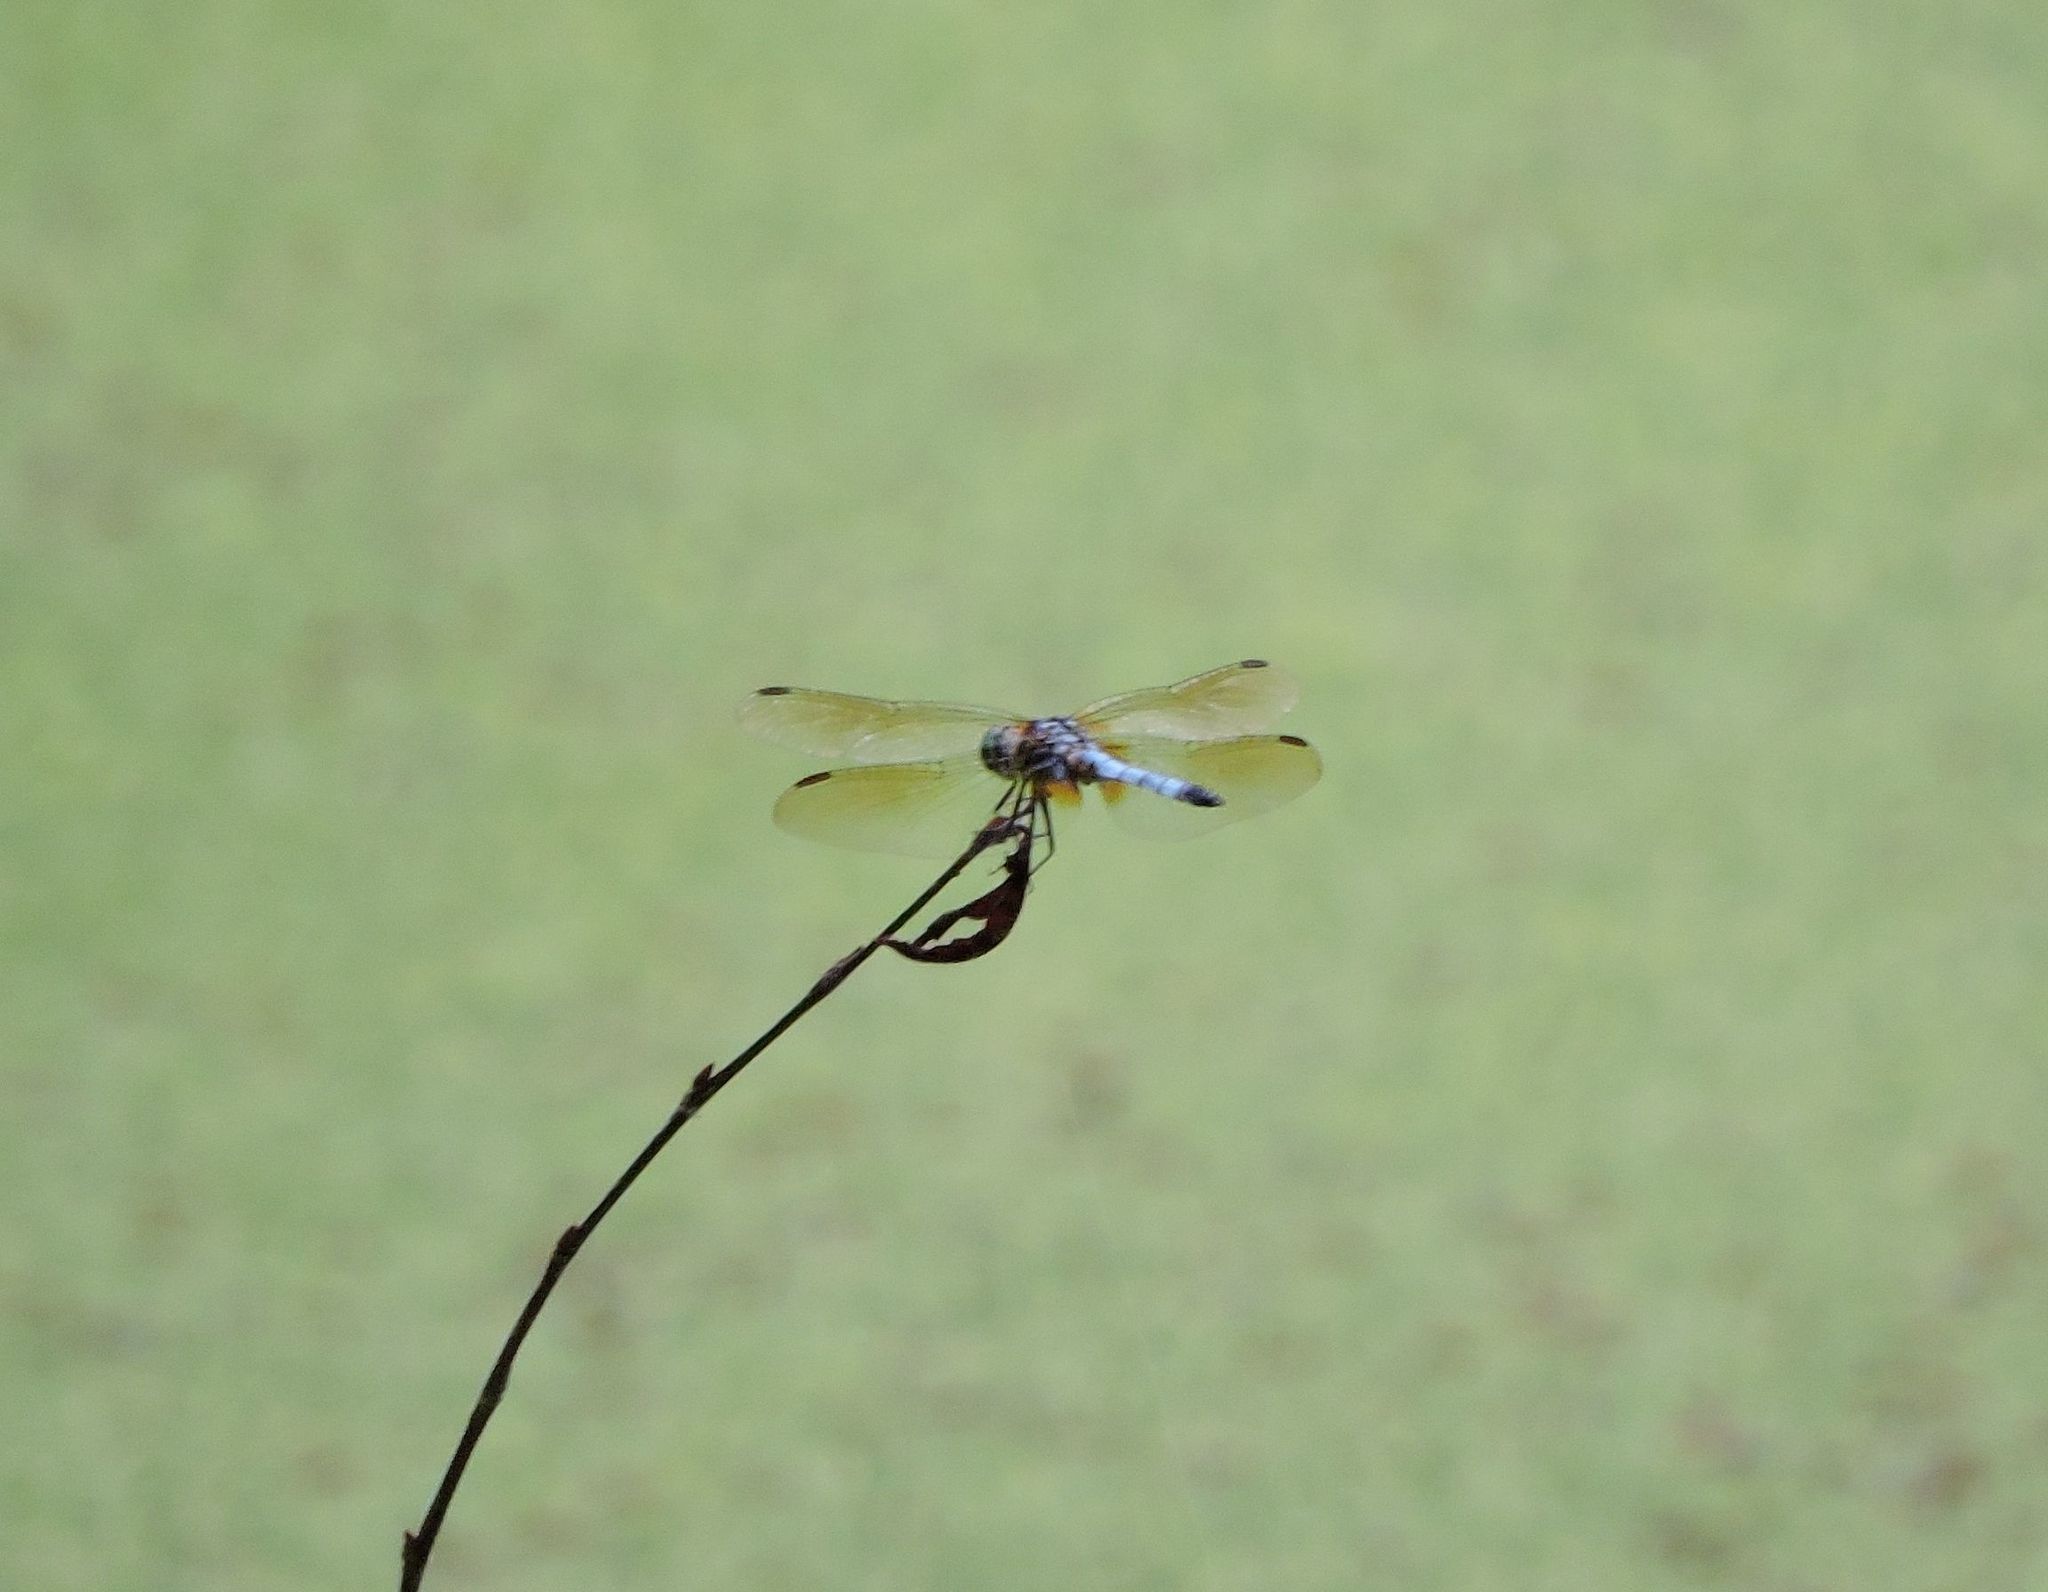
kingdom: Animalia
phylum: Arthropoda
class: Insecta
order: Odonata
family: Libellulidae
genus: Pachydiplax
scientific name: Pachydiplax longipennis
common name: Blue dasher
